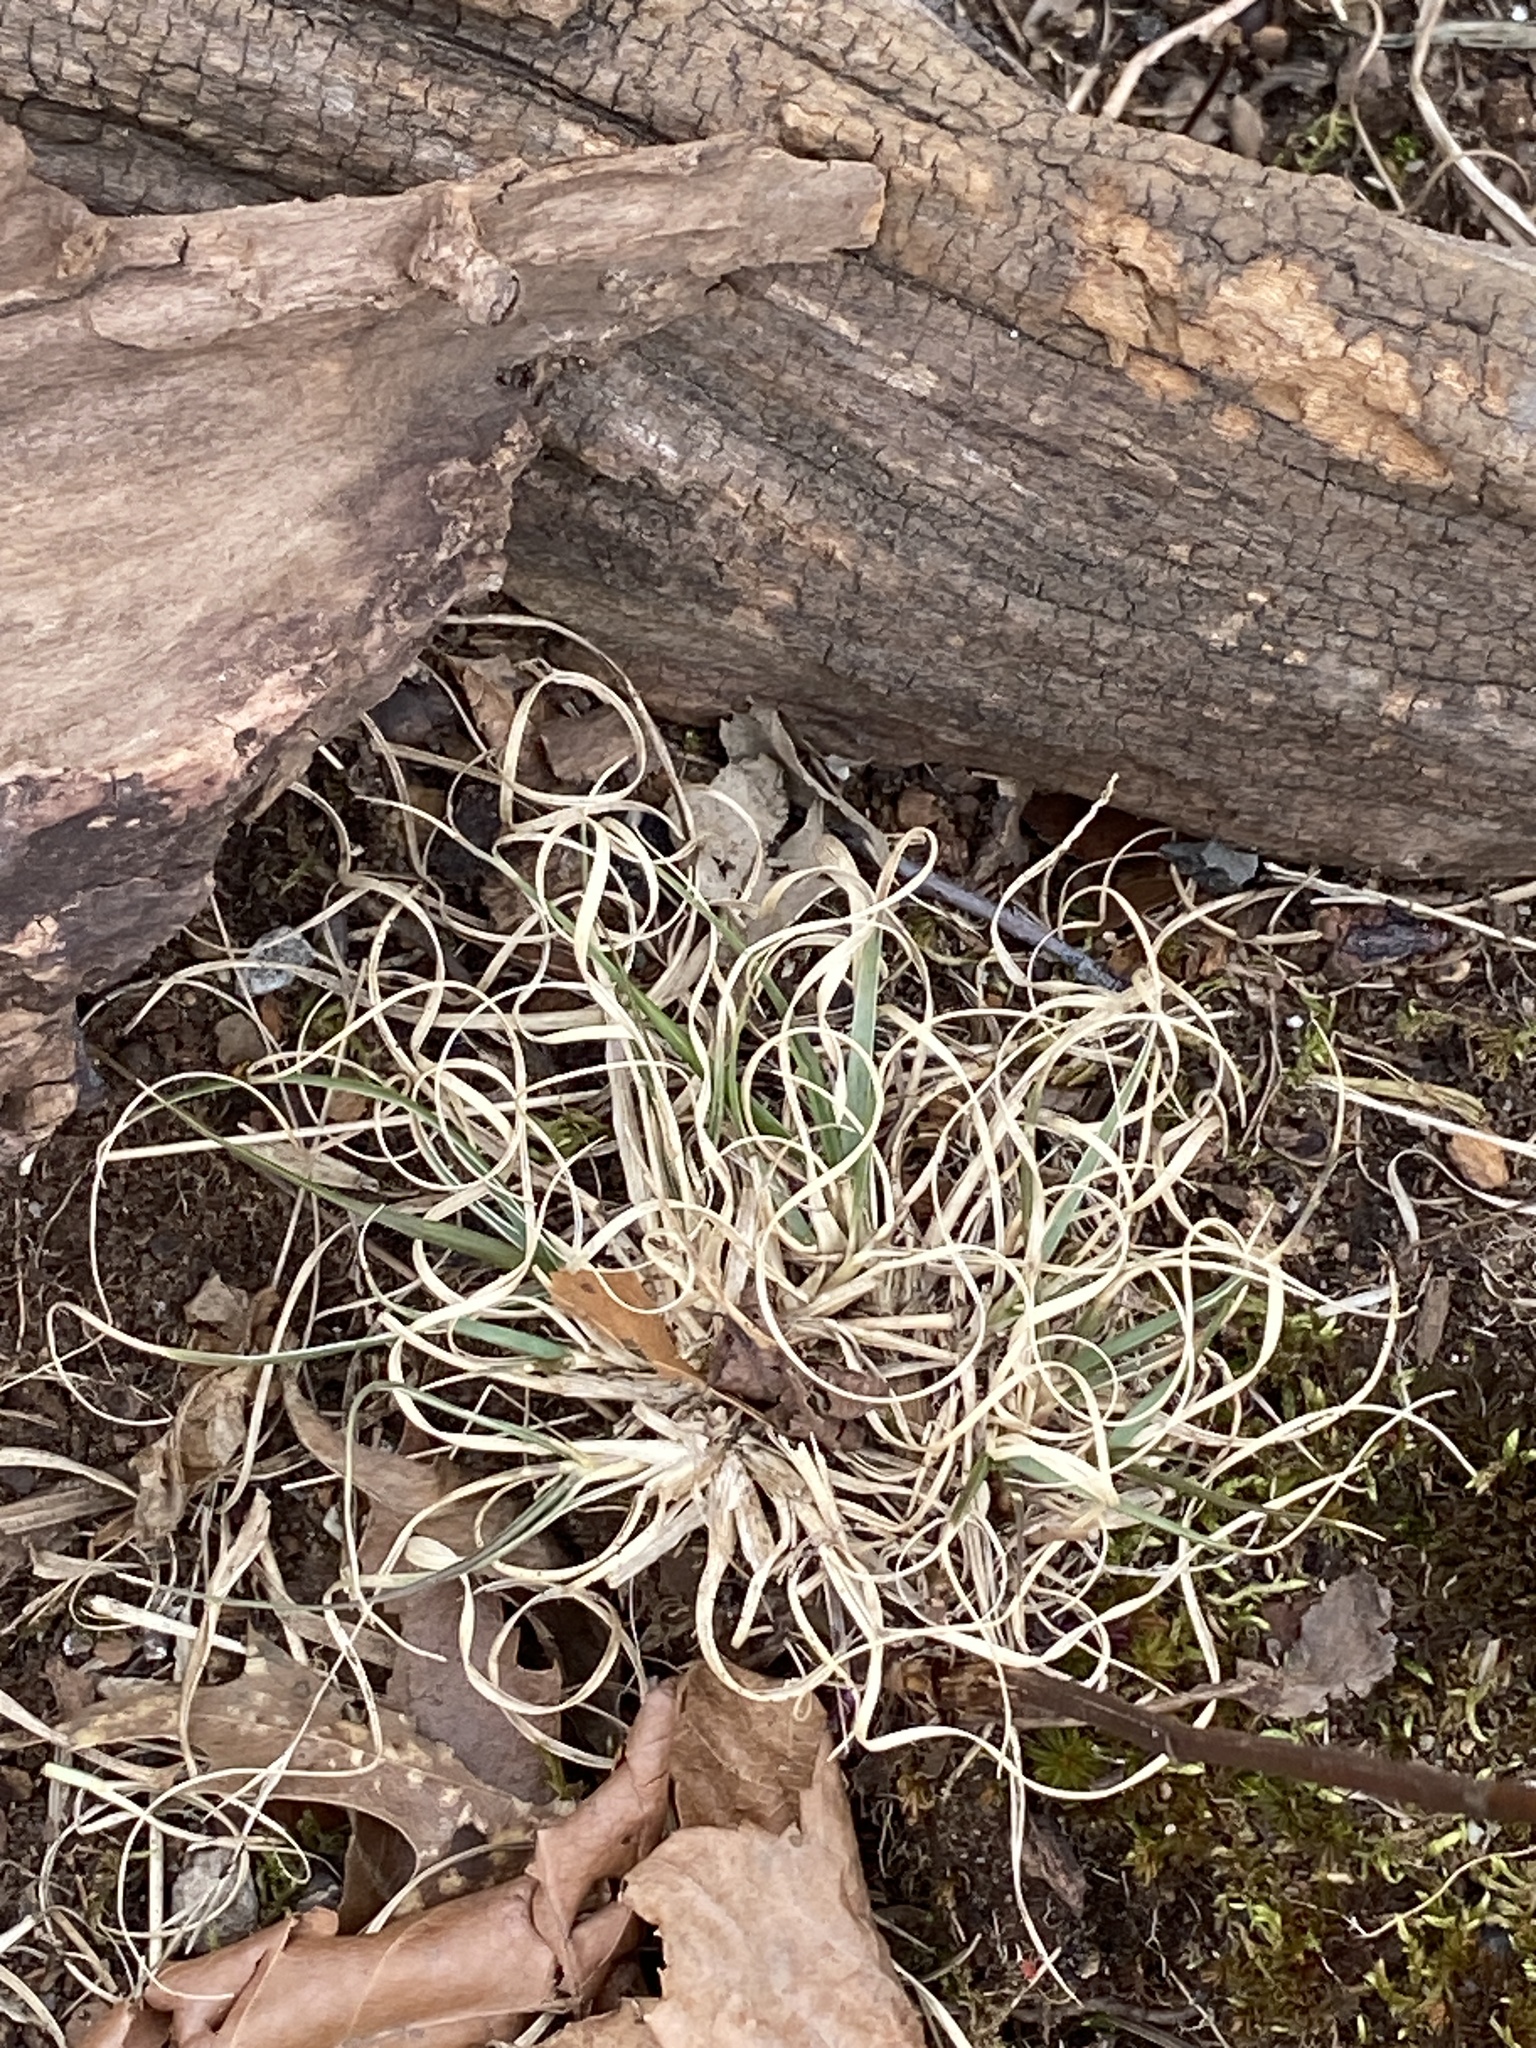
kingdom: Plantae
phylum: Tracheophyta
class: Liliopsida
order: Poales
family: Poaceae
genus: Danthonia
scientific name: Danthonia spicata
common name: Common wild oatgrass
